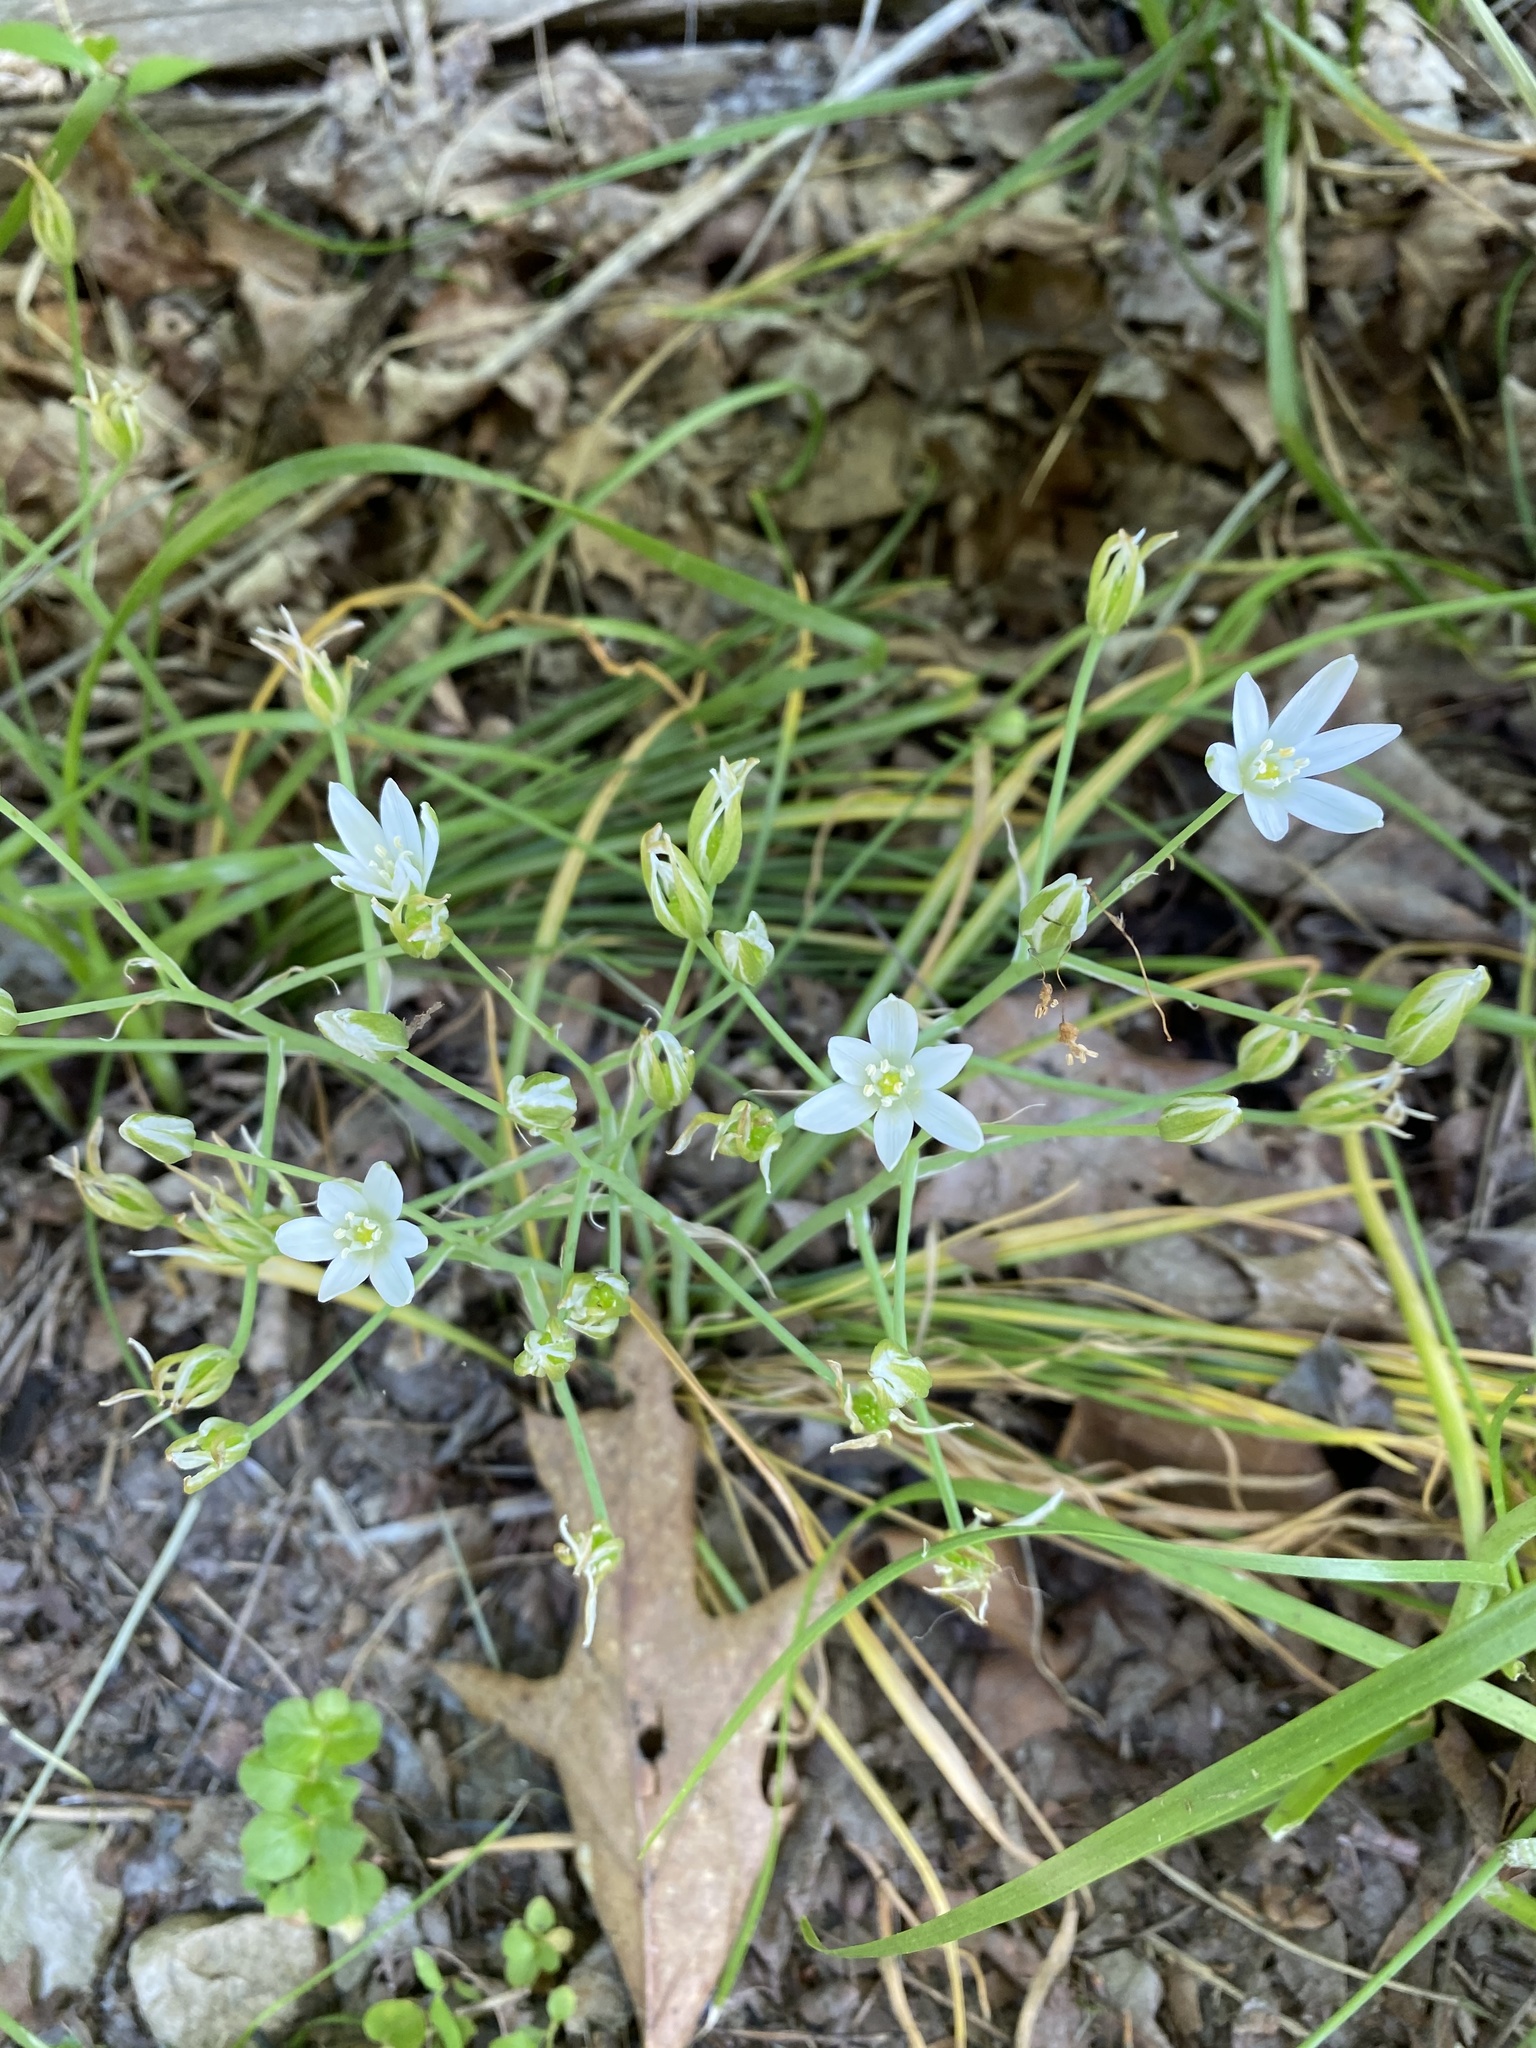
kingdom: Plantae
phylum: Tracheophyta
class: Liliopsida
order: Asparagales
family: Asparagaceae
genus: Ornithogalum
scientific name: Ornithogalum umbellatum
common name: Garden star-of-bethlehem
